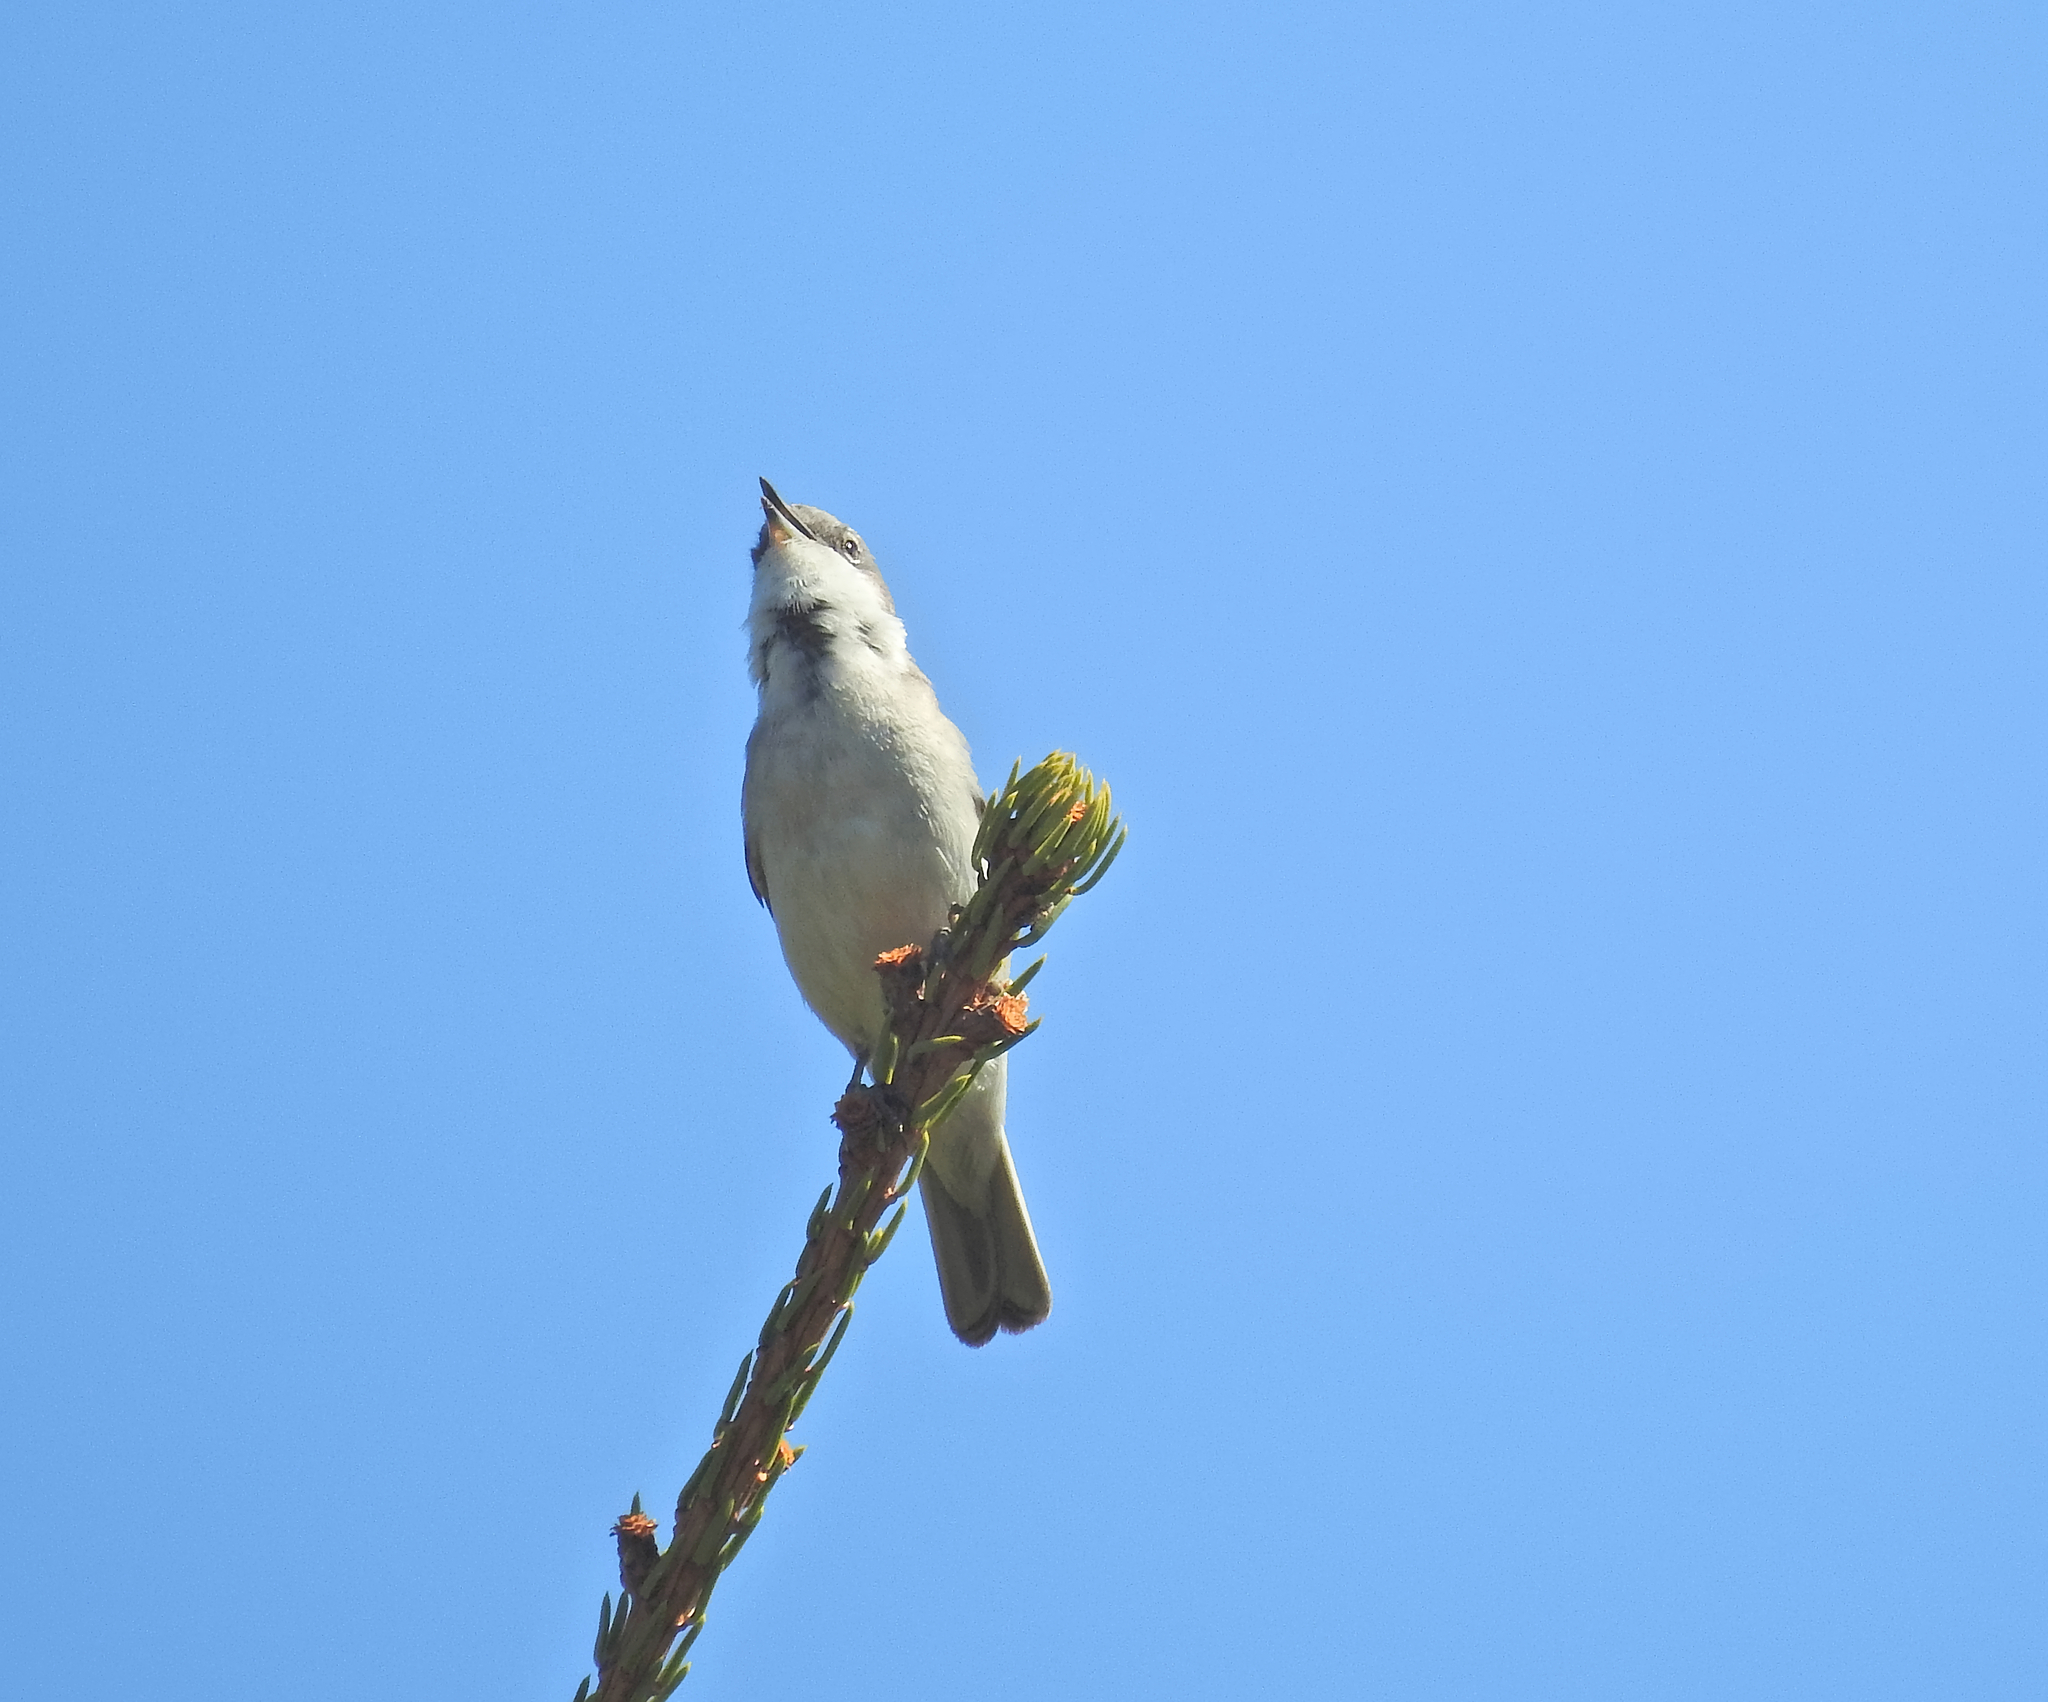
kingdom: Animalia
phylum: Chordata
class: Aves
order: Passeriformes
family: Sylviidae
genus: Sylvia
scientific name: Sylvia curruca
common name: Lesser whitethroat
